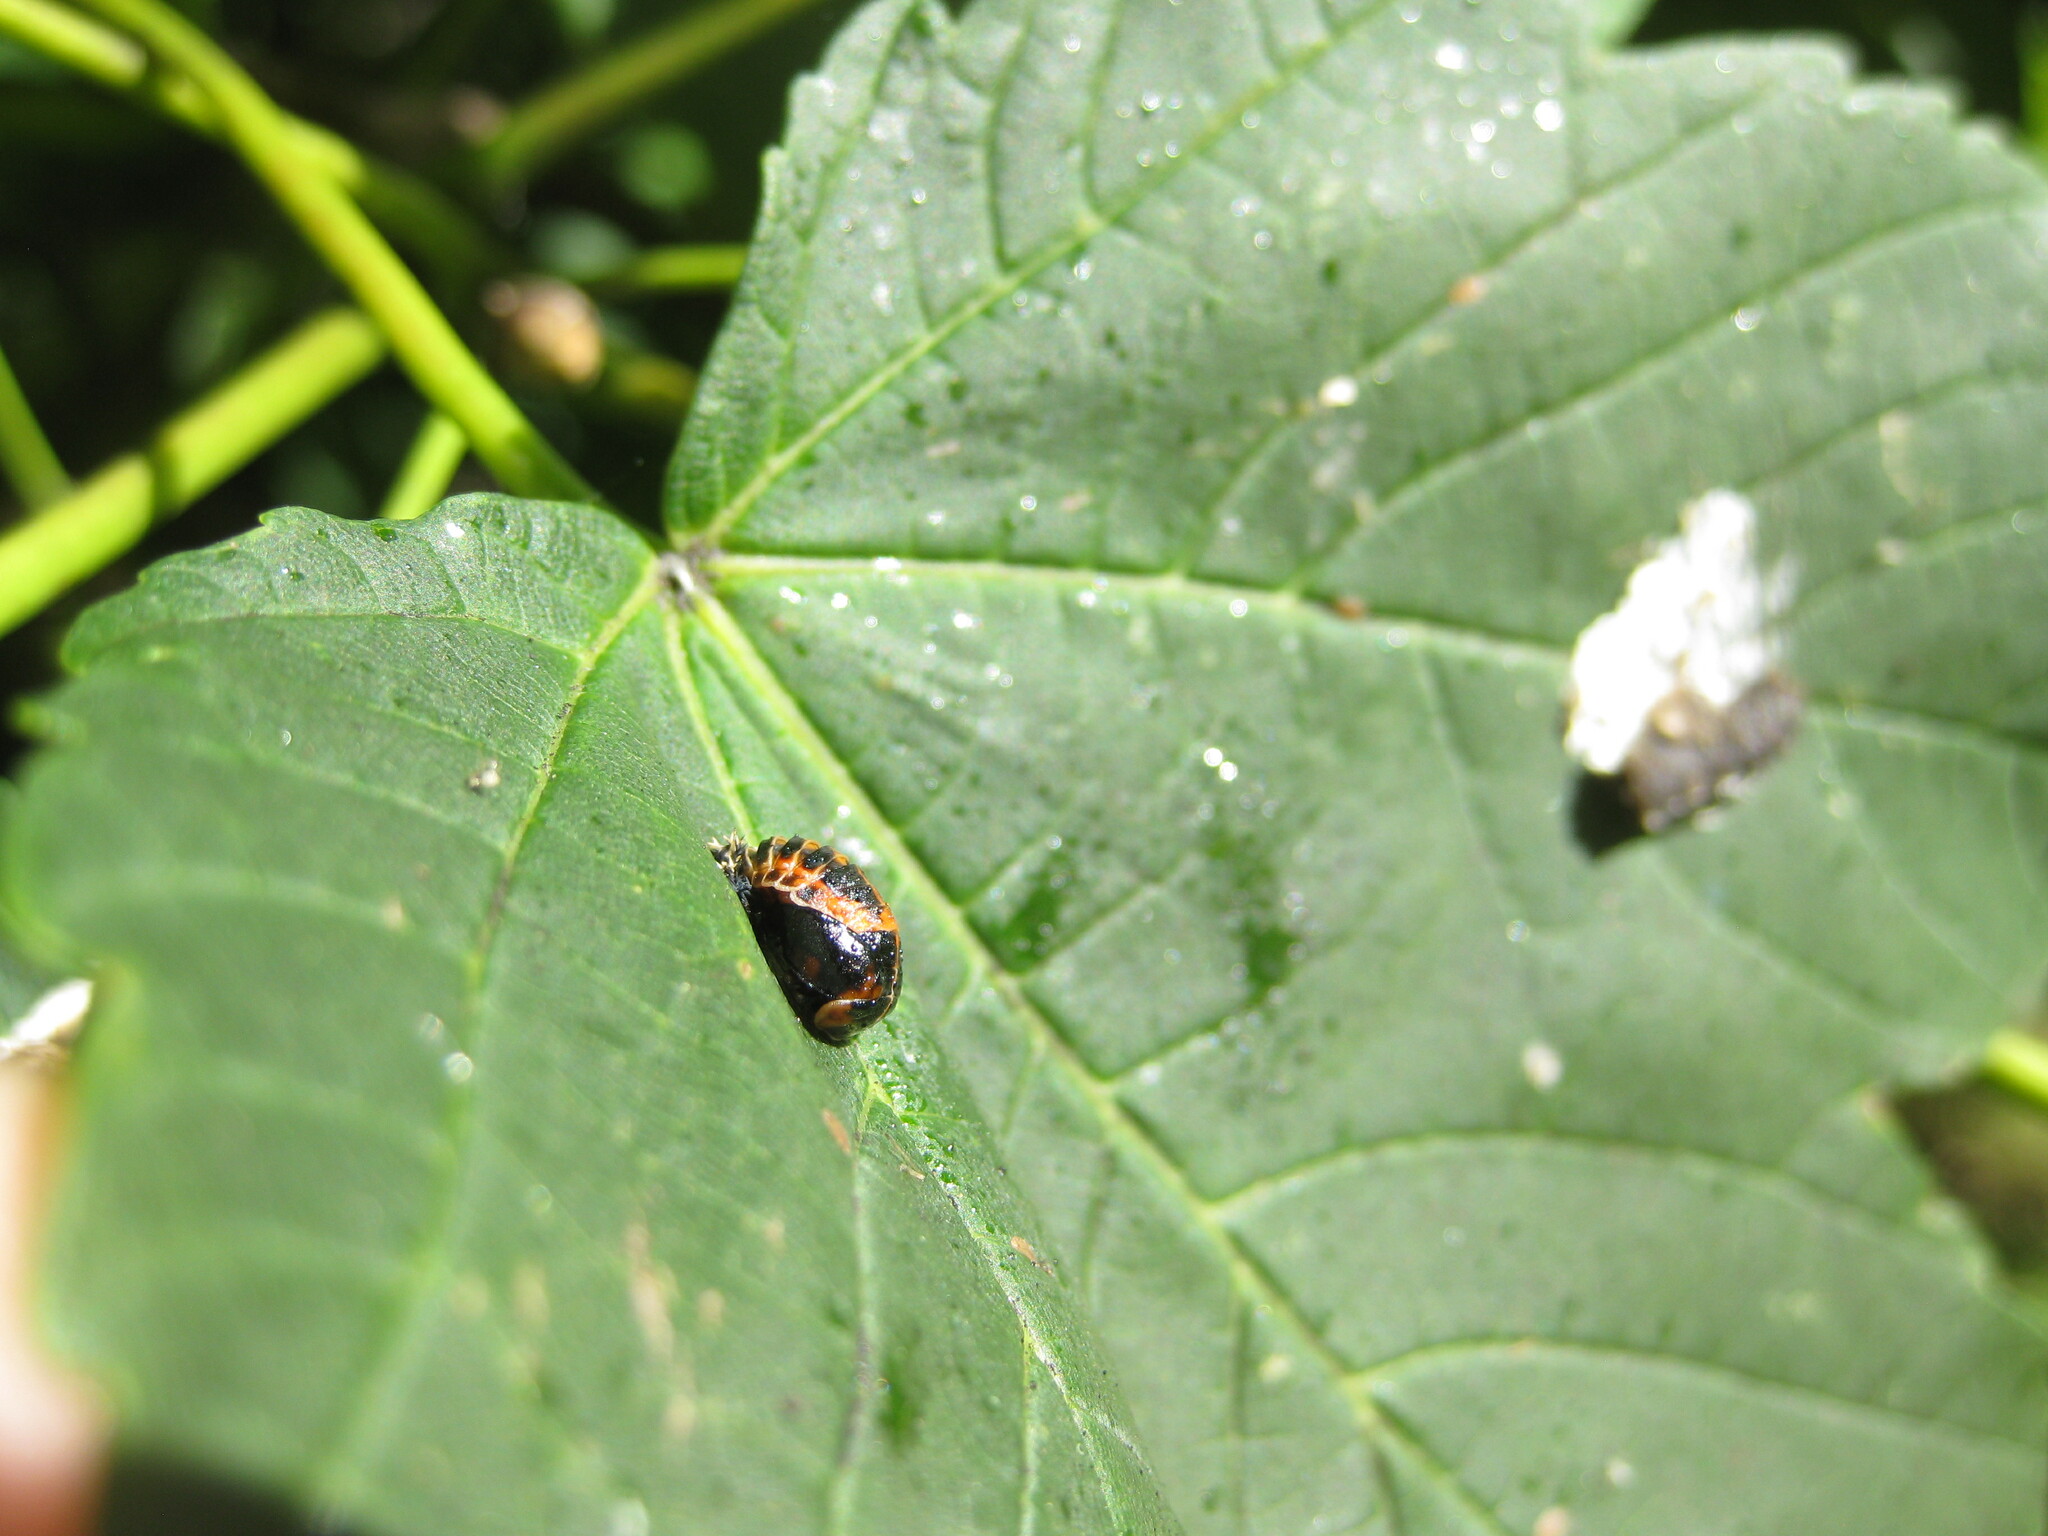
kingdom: Animalia
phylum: Arthropoda
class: Insecta
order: Coleoptera
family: Coccinellidae
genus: Harmonia
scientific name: Harmonia axyridis
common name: Harlequin ladybird
